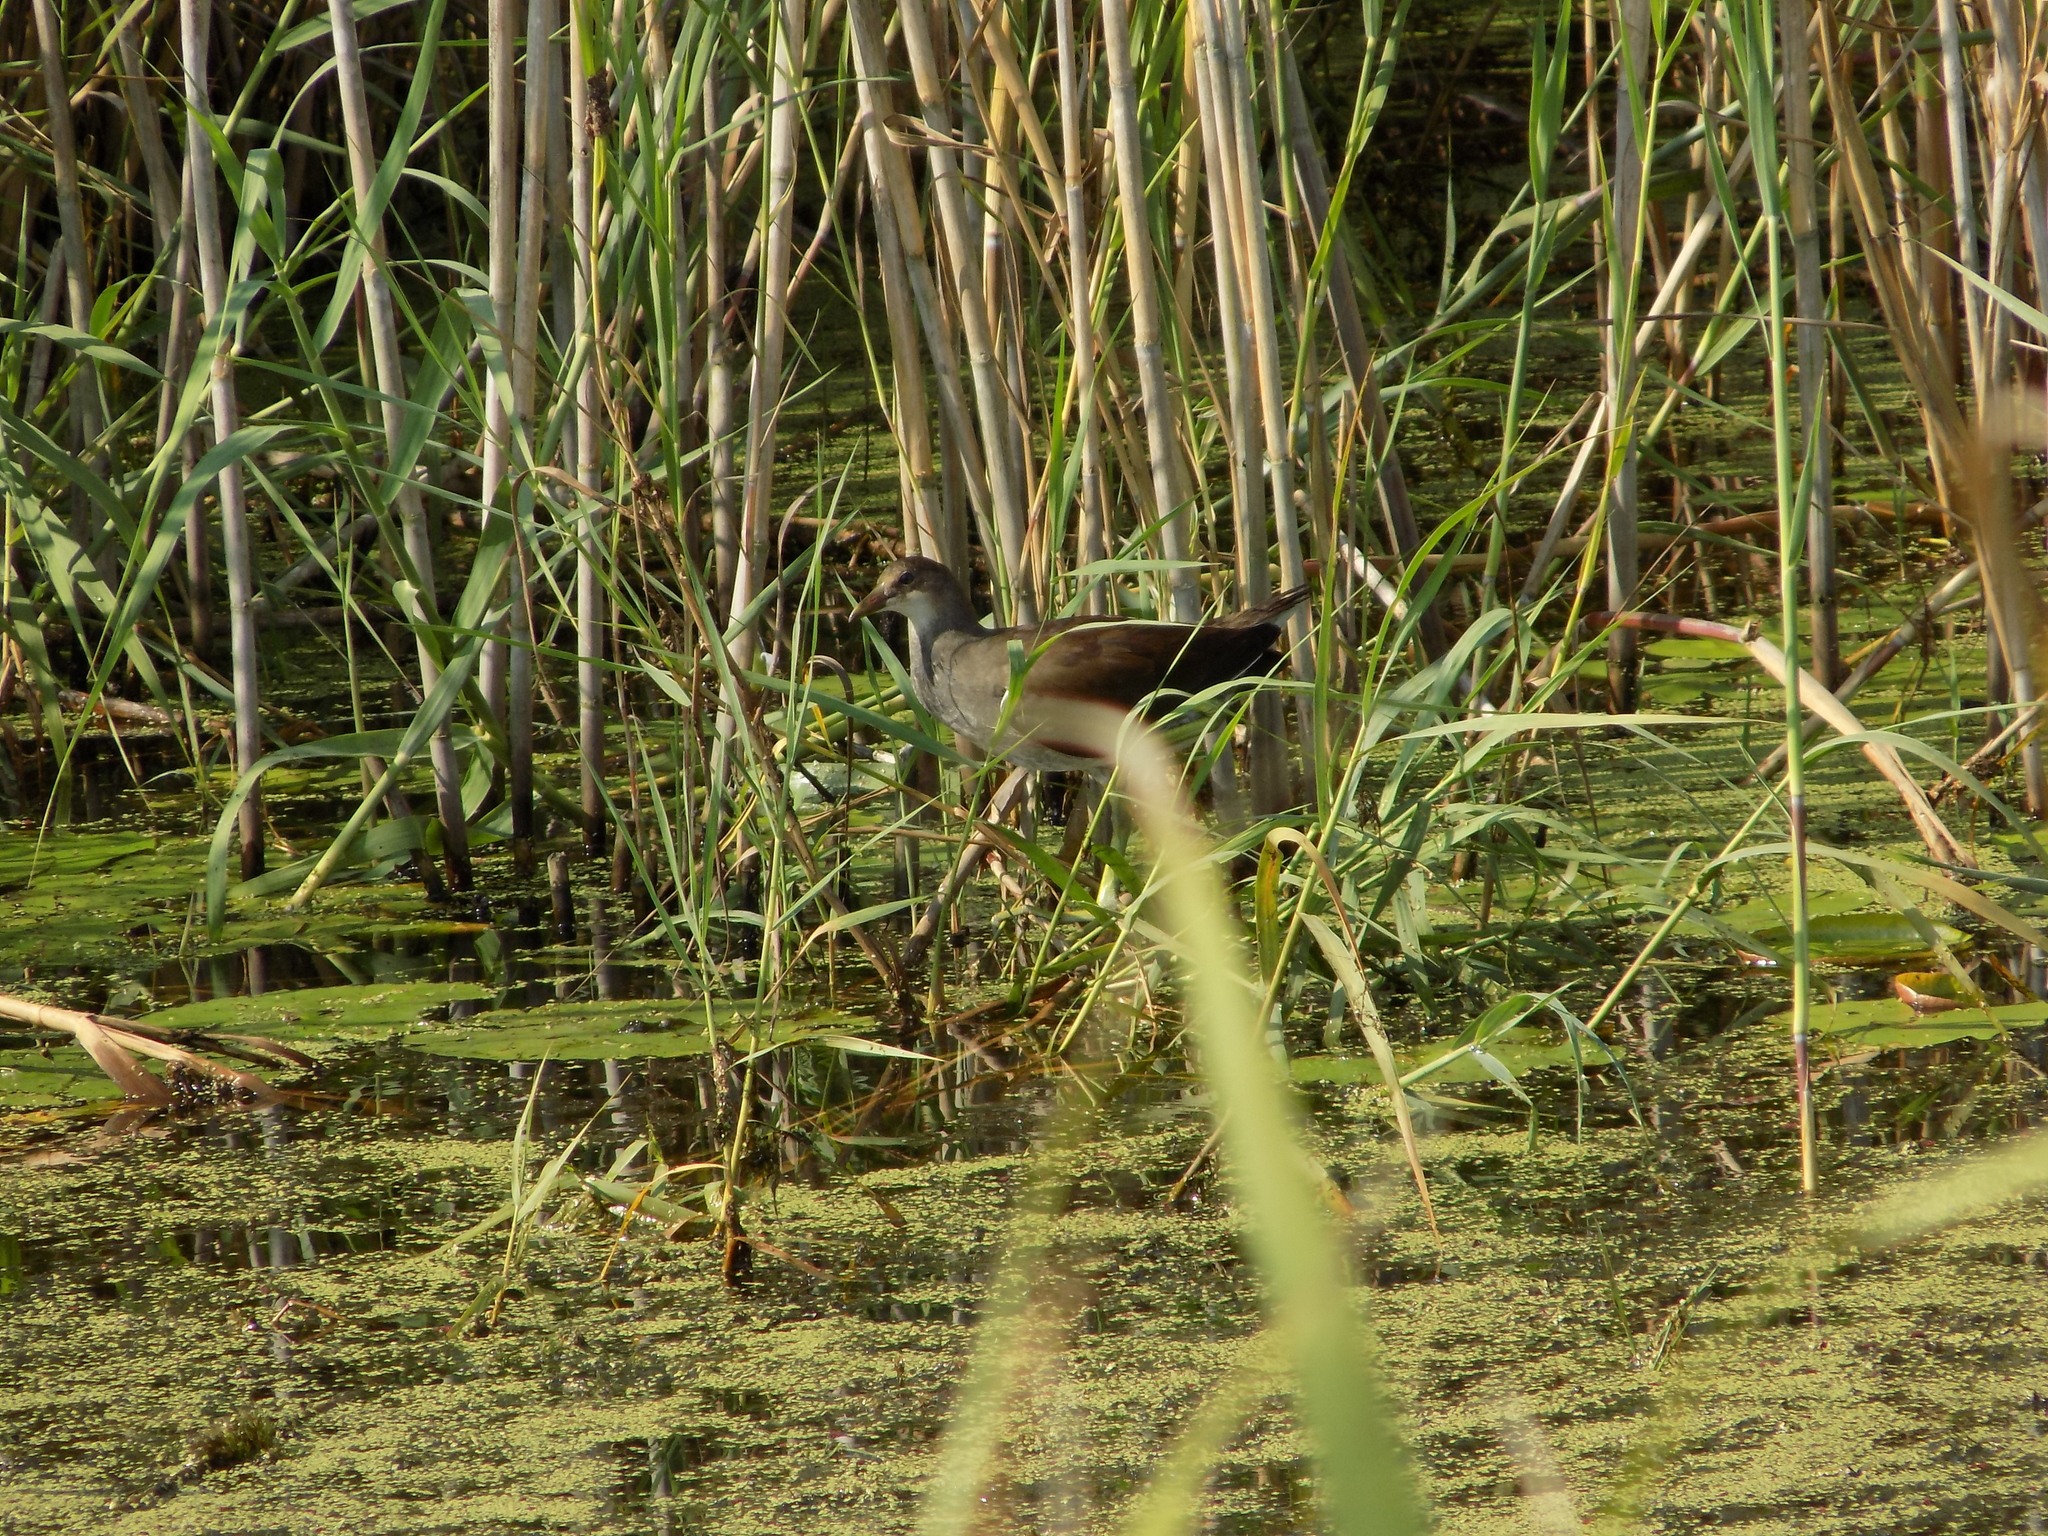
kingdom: Animalia
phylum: Chordata
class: Aves
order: Gruiformes
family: Rallidae
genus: Gallinula
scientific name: Gallinula chloropus
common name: Common moorhen
